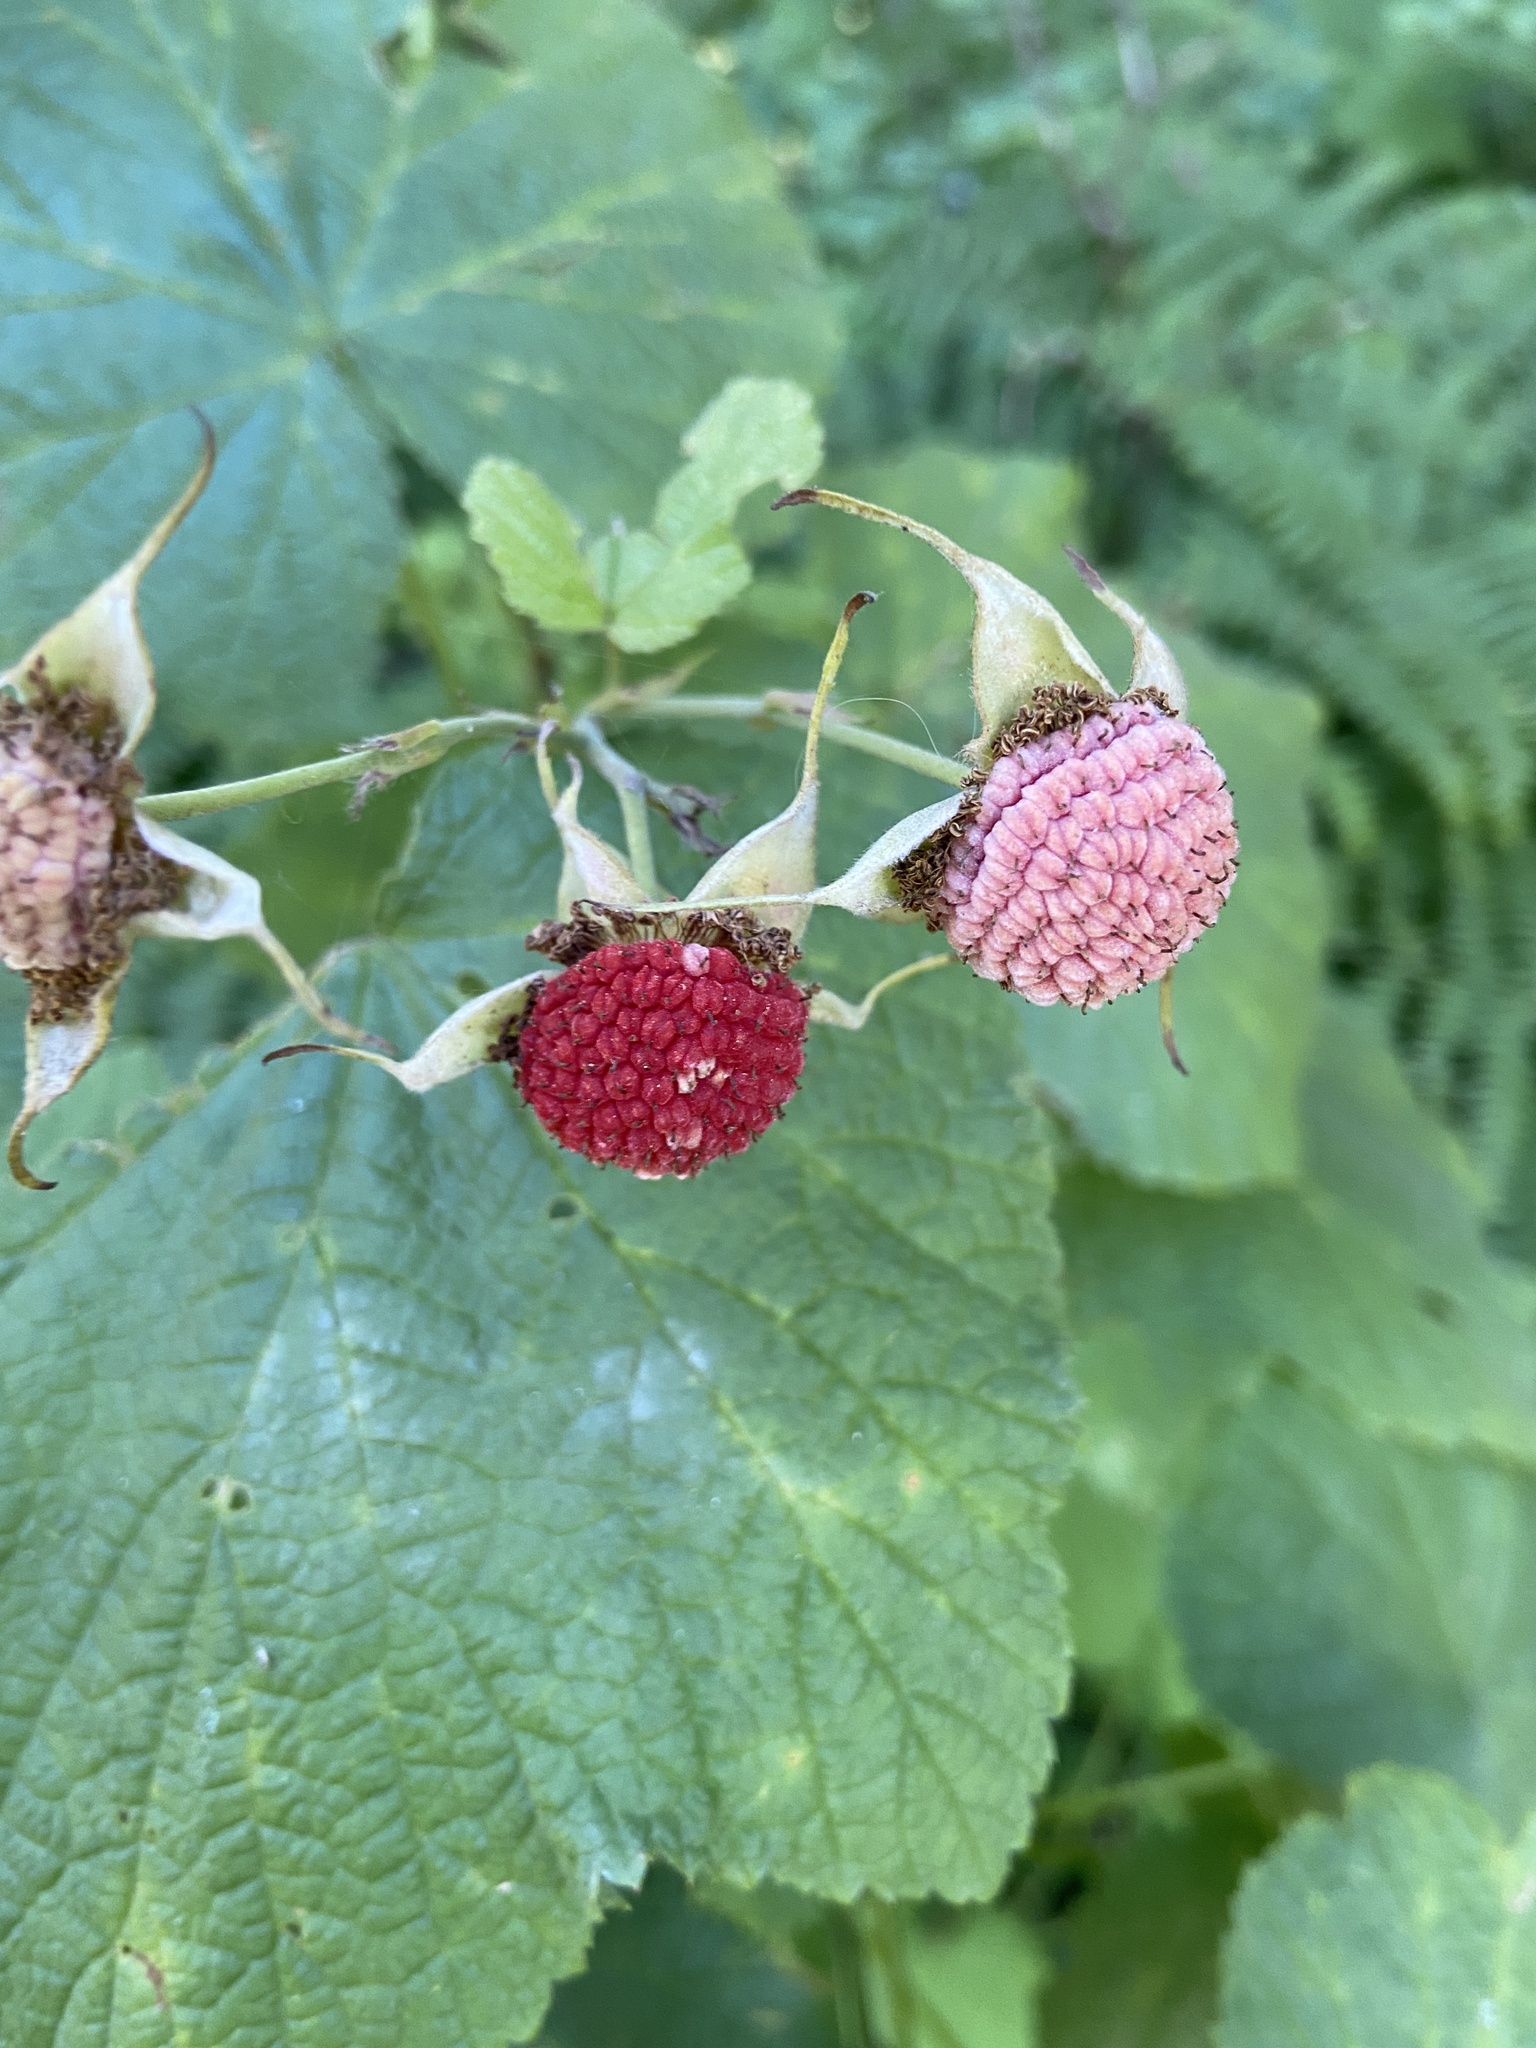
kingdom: Plantae
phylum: Tracheophyta
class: Magnoliopsida
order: Rosales
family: Rosaceae
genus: Rubus
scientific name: Rubus parviflorus
